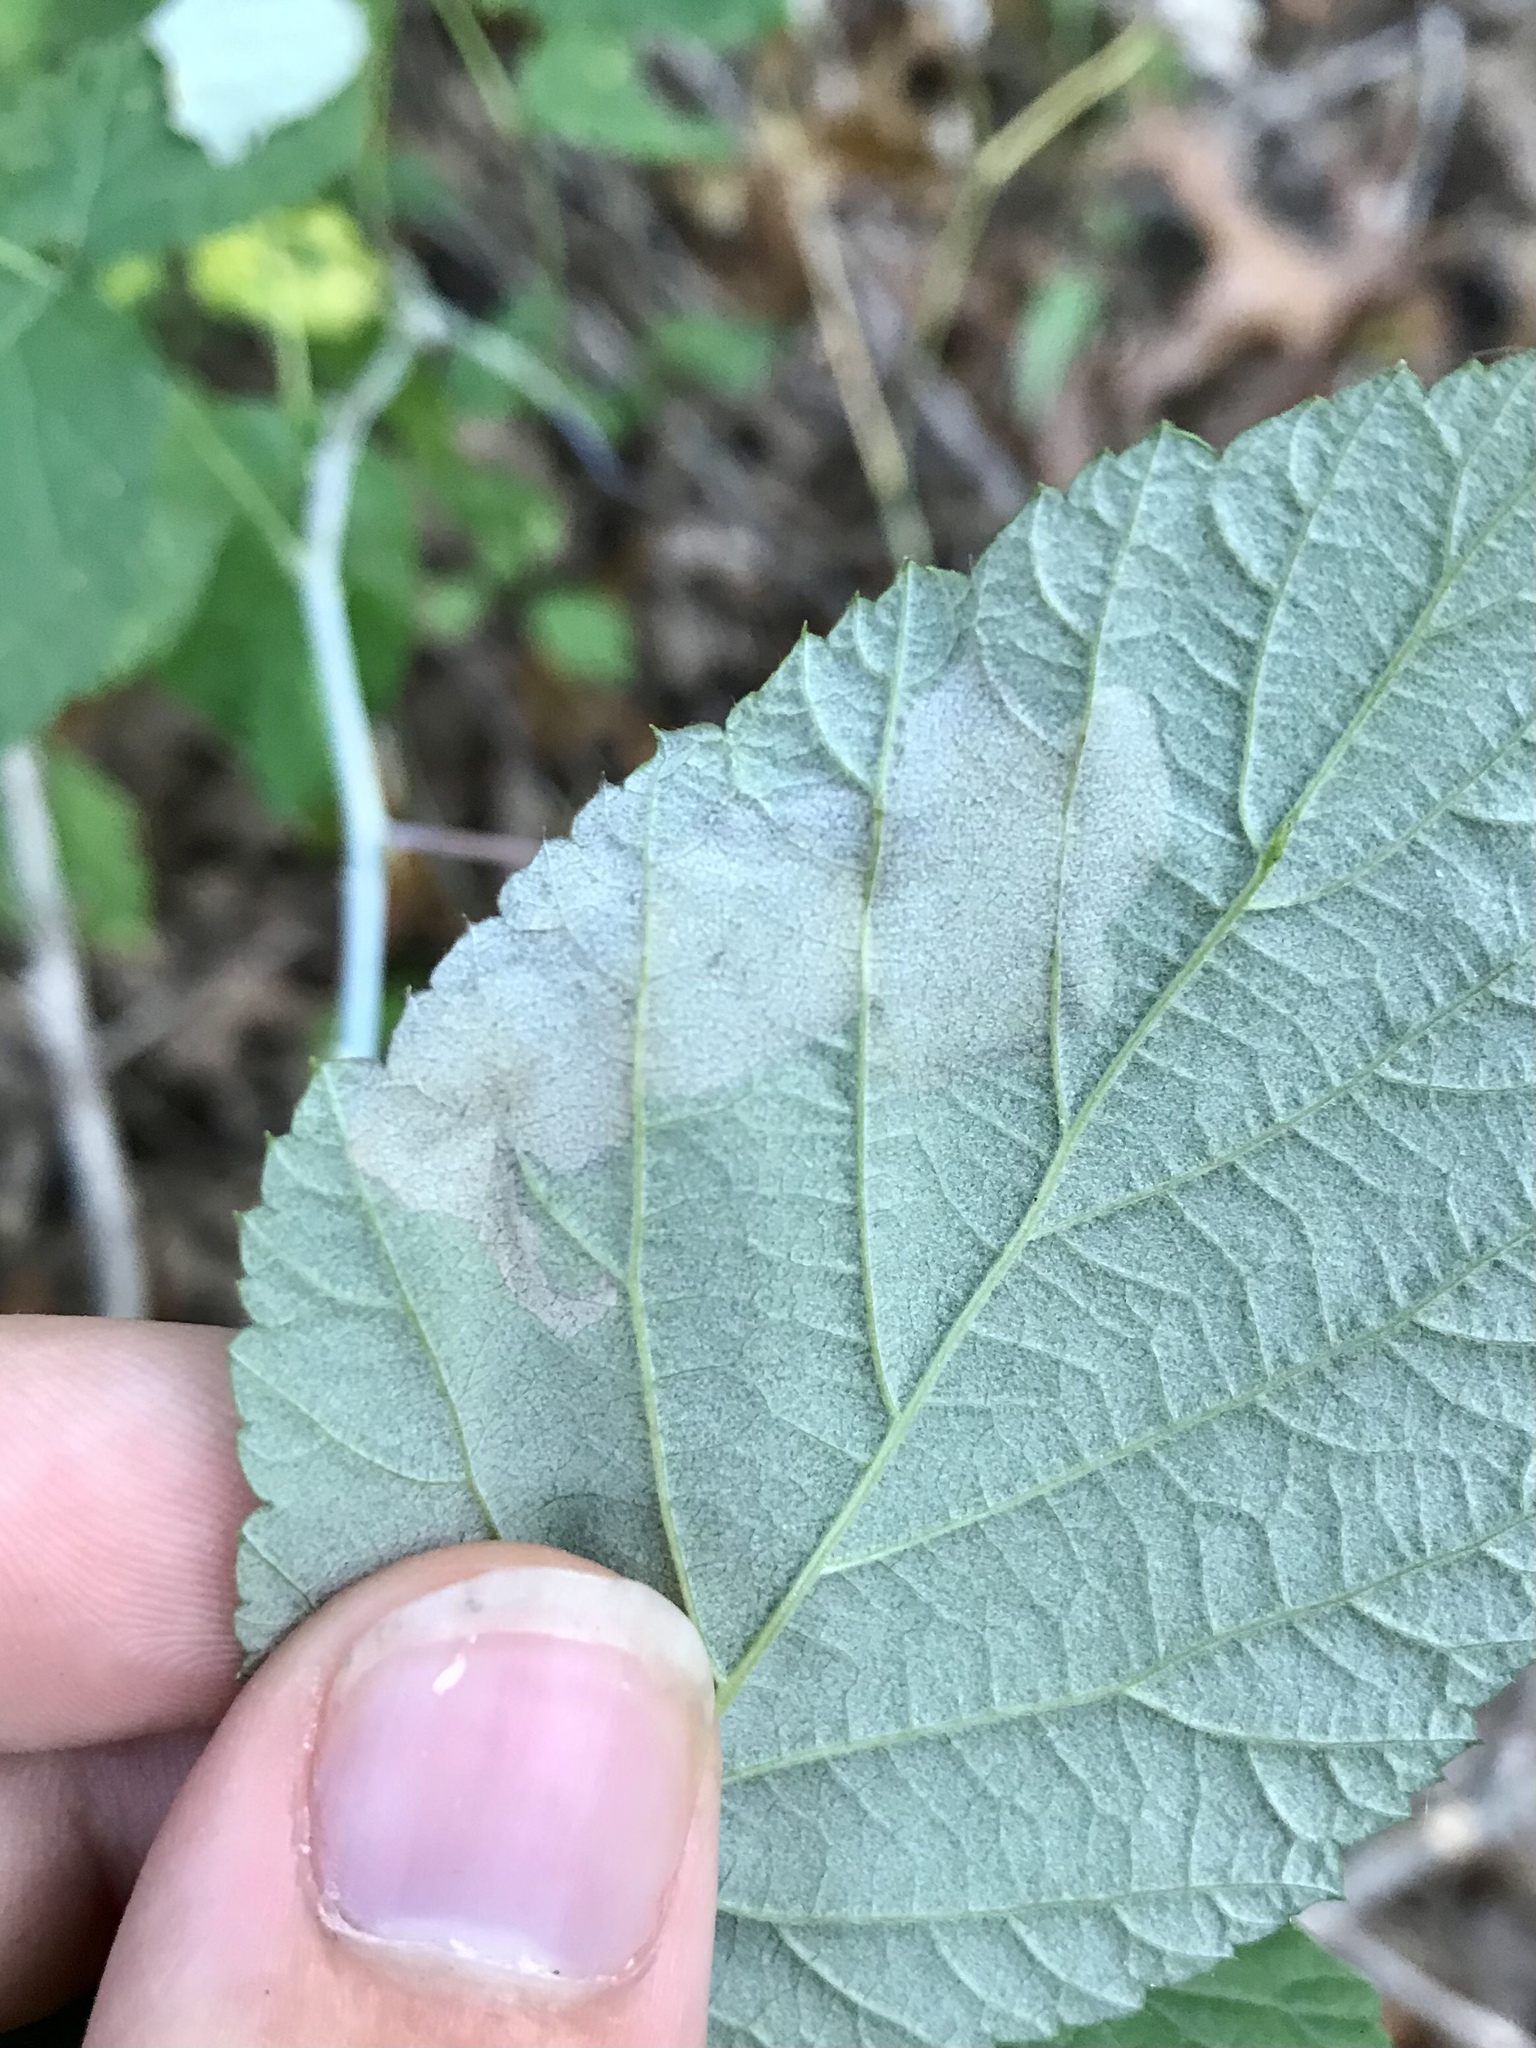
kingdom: Animalia
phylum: Arthropoda
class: Insecta
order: Hymenoptera
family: Tenthredinidae
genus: Metallus
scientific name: Metallus capitalis
